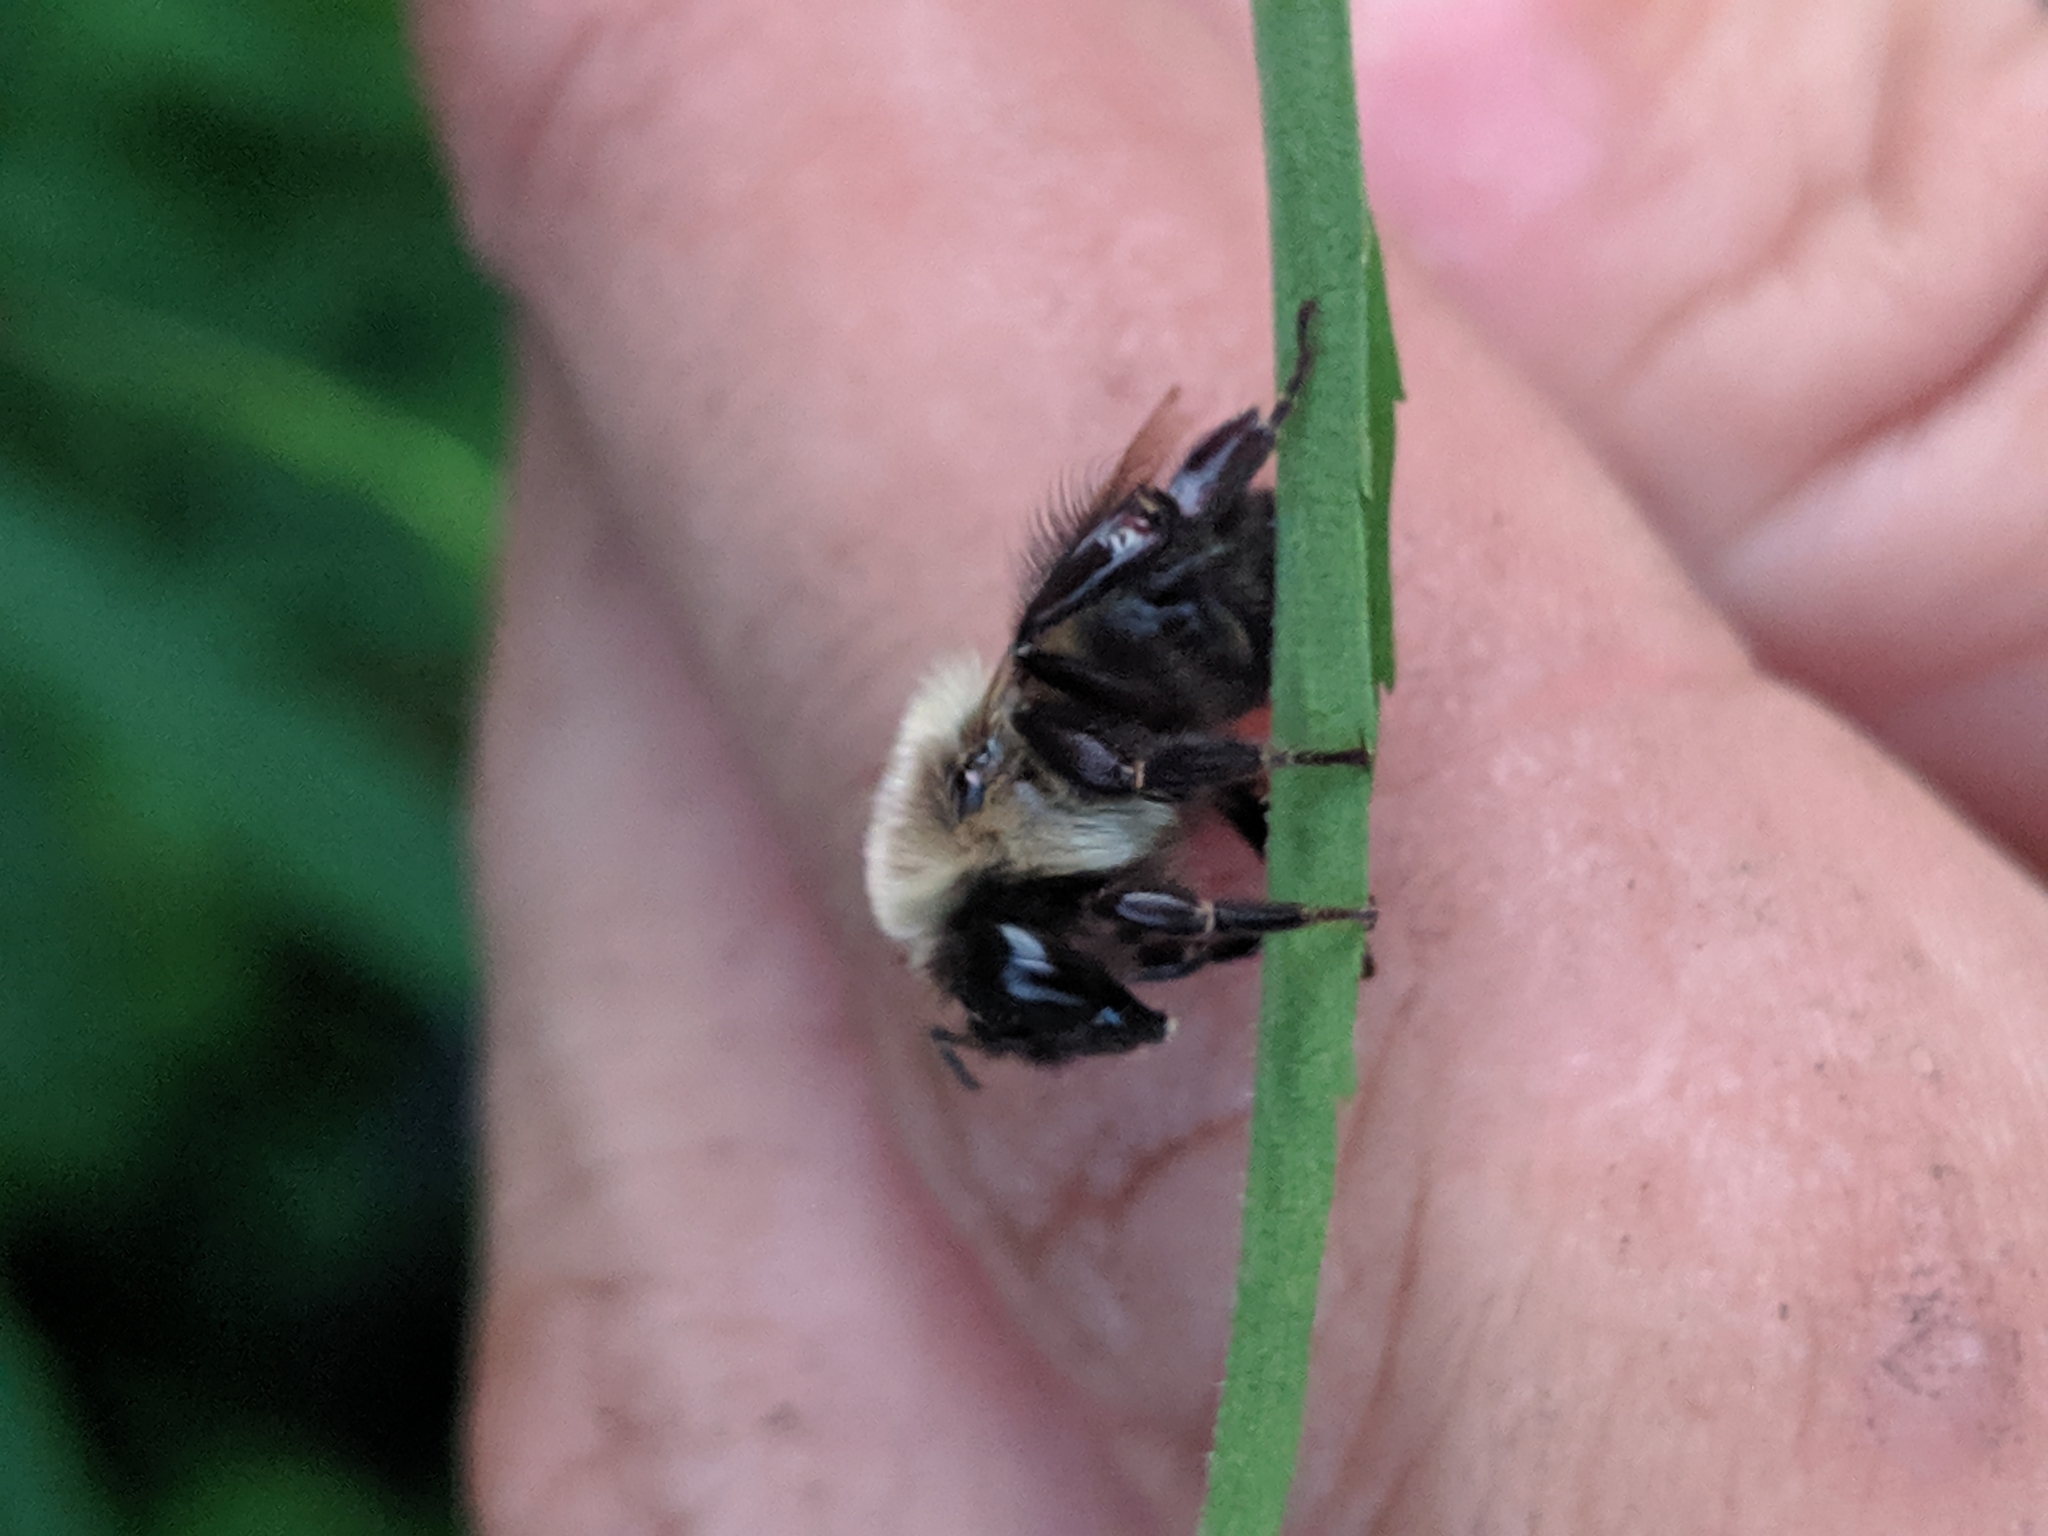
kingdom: Animalia
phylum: Arthropoda
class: Insecta
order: Hymenoptera
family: Apidae
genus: Bombus
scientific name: Bombus impatiens
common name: Common eastern bumble bee
